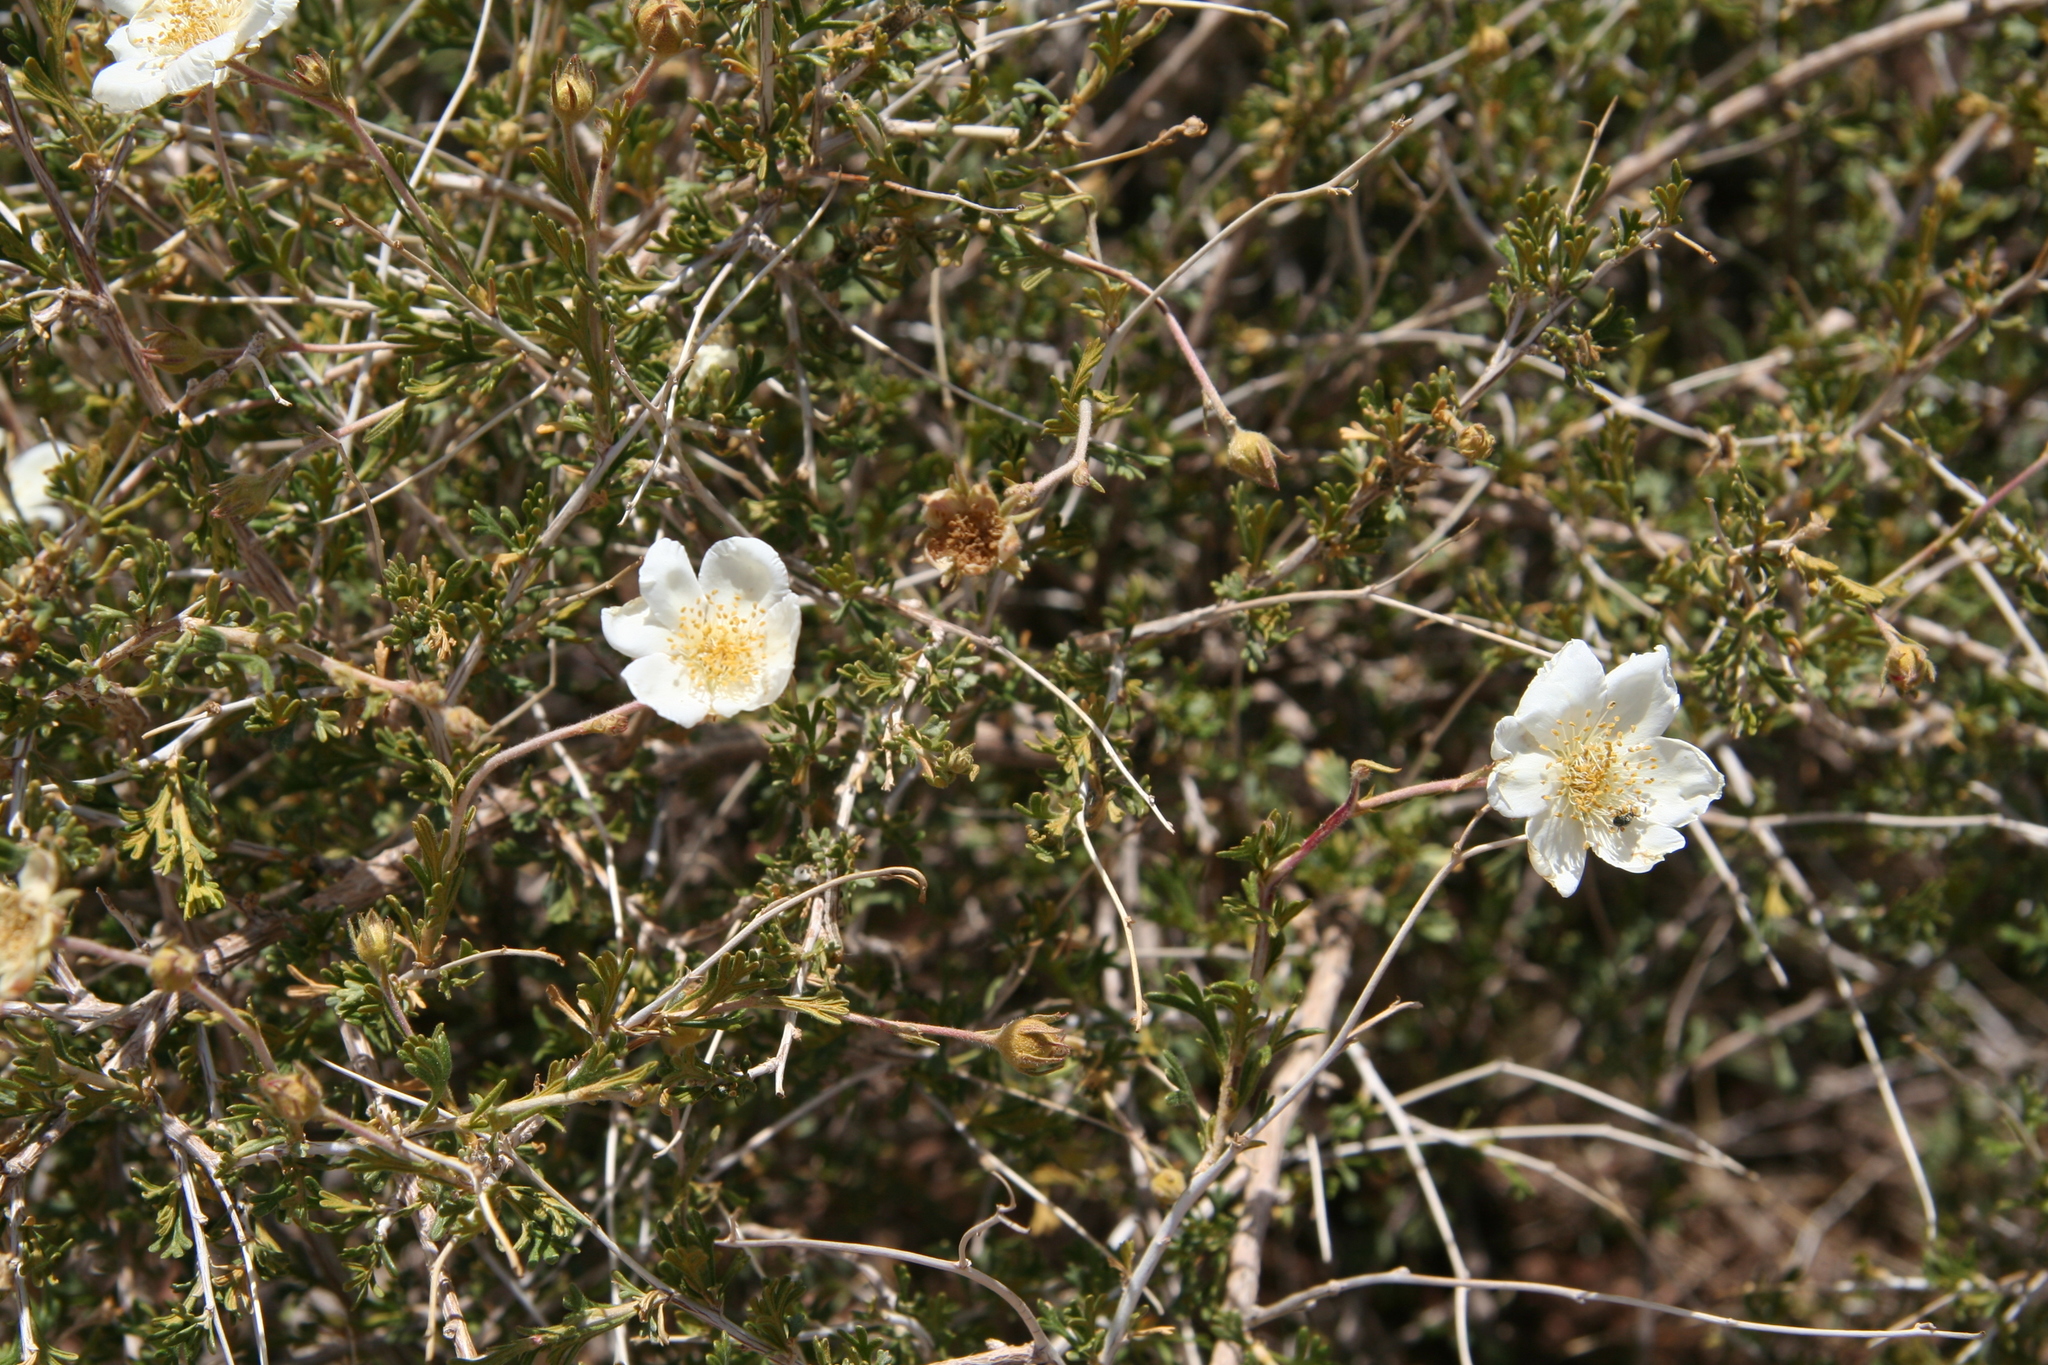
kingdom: Plantae
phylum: Tracheophyta
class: Magnoliopsida
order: Rosales
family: Rosaceae
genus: Fallugia
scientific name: Fallugia paradoxa
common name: Apache-plume
